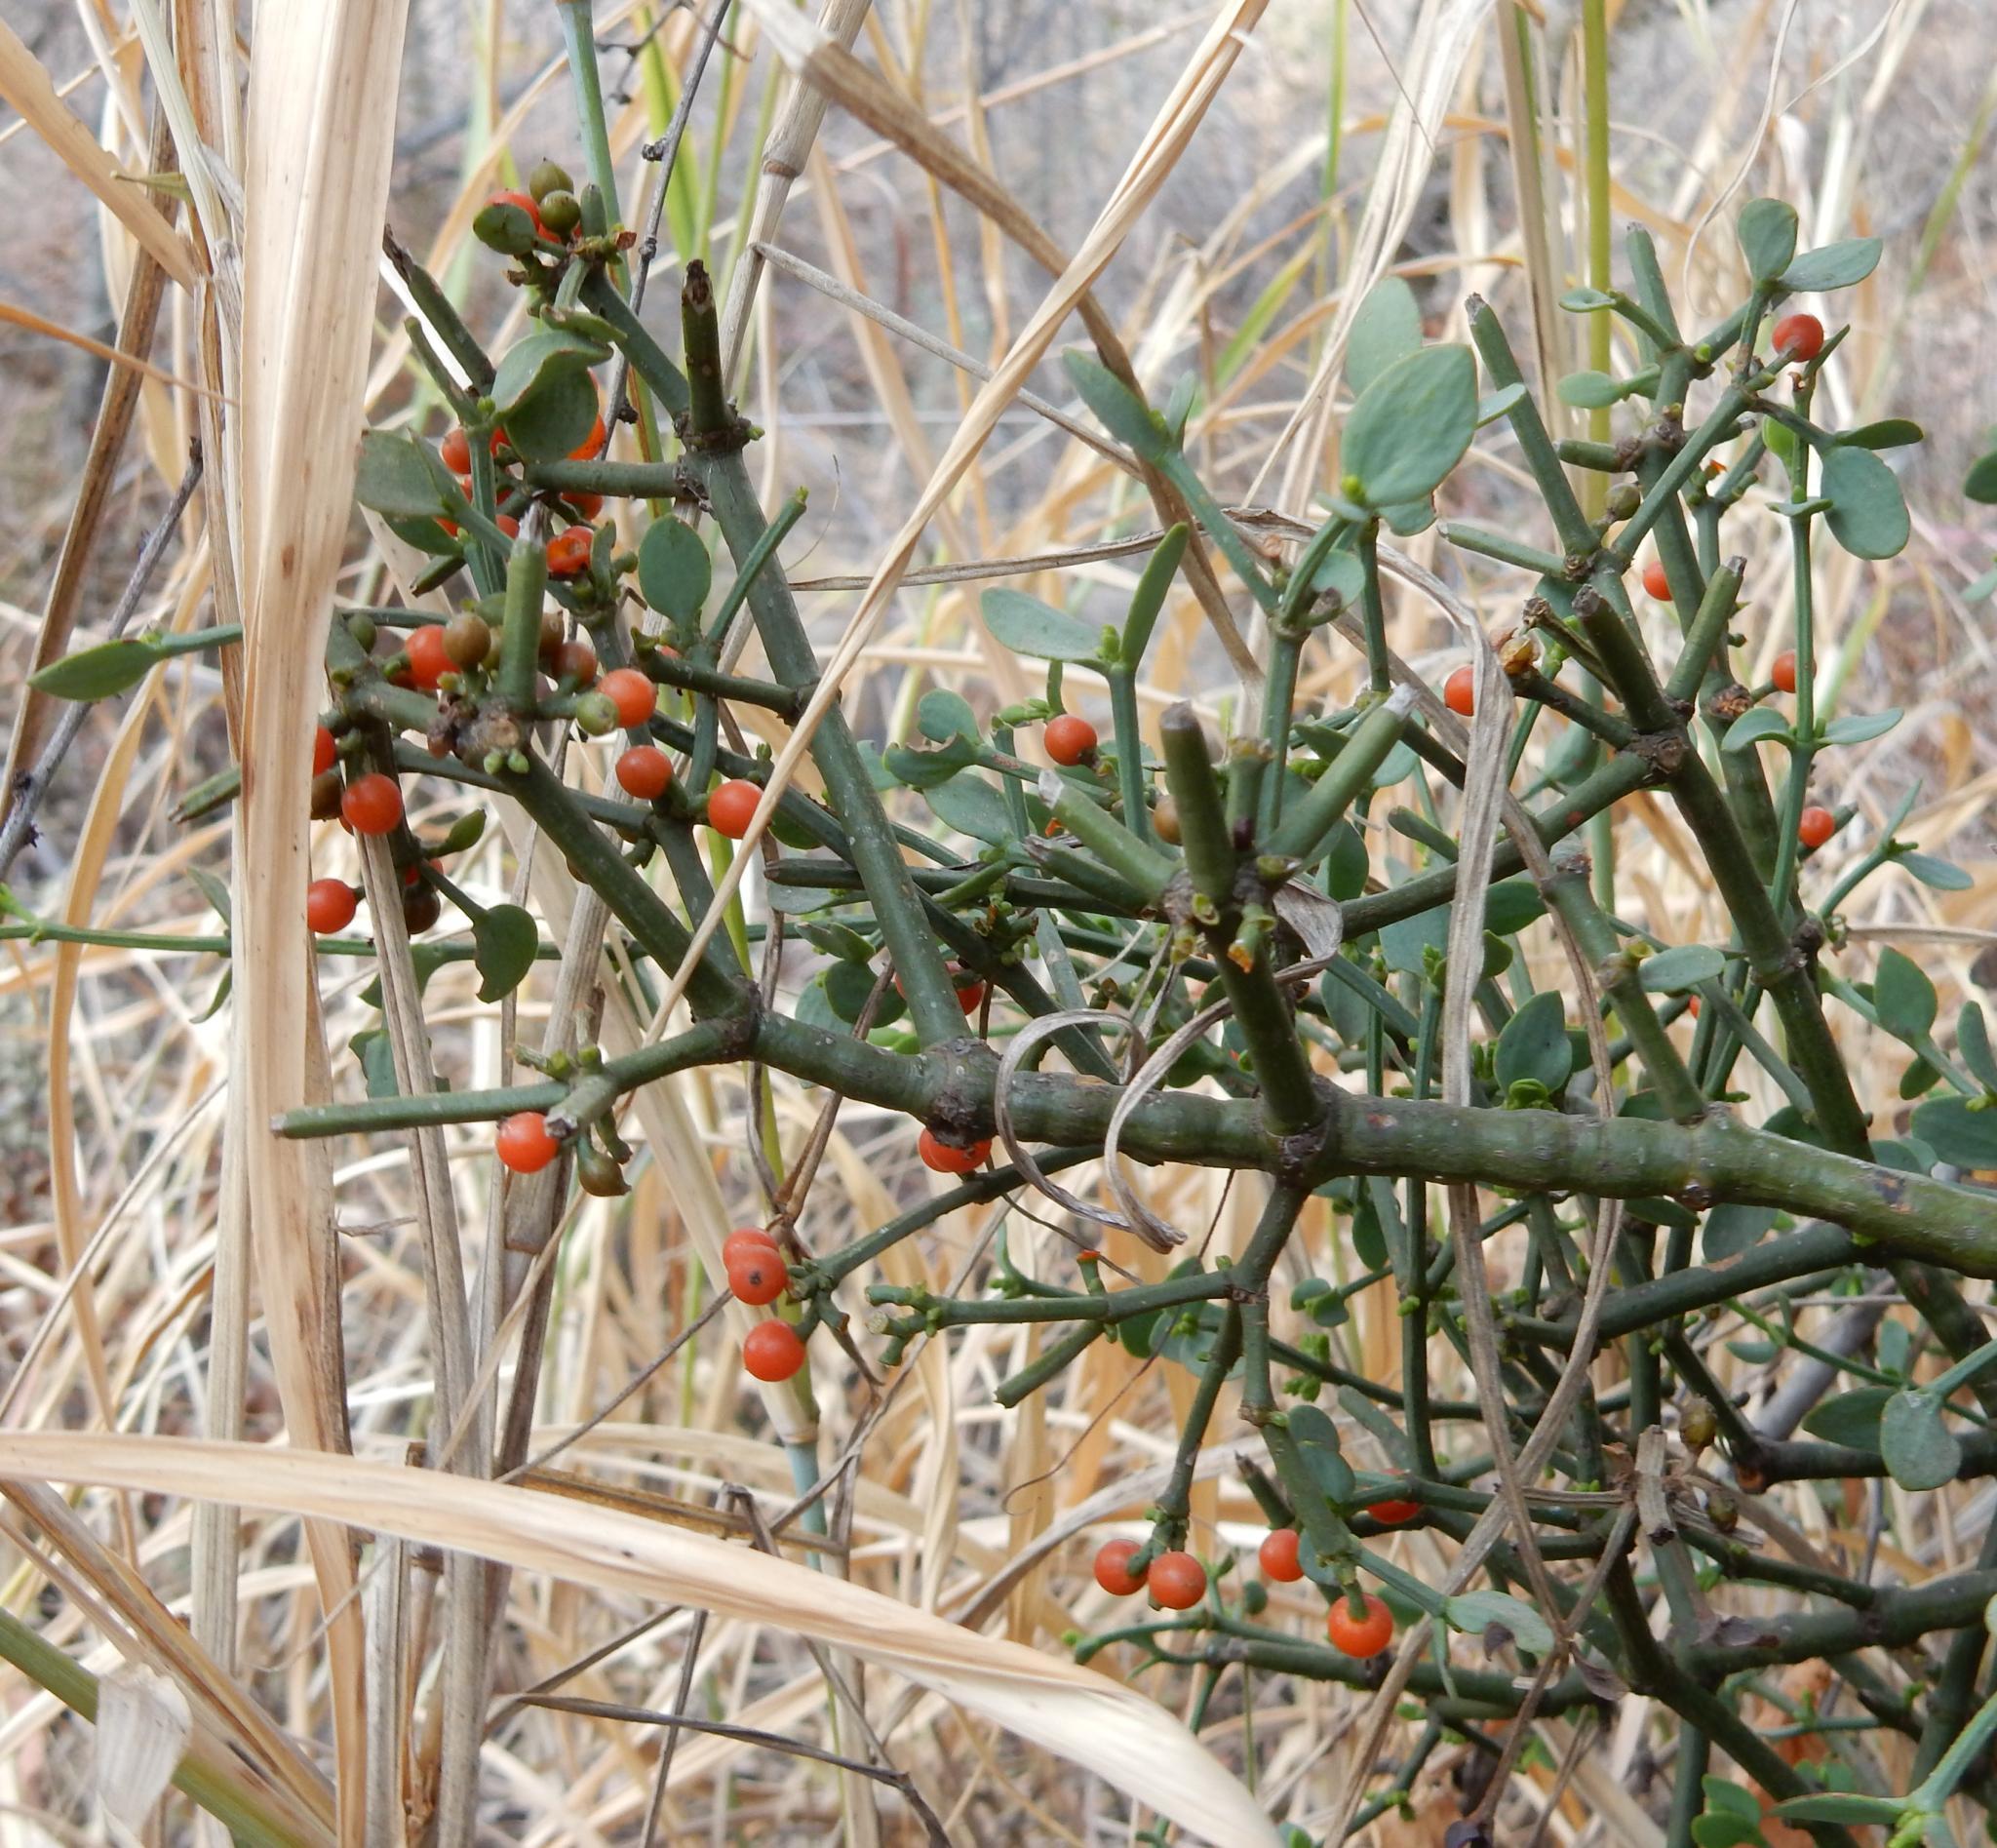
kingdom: Plantae
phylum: Tracheophyta
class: Magnoliopsida
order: Santalales
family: Viscaceae
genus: Viscum
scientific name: Viscum rotundifolium
